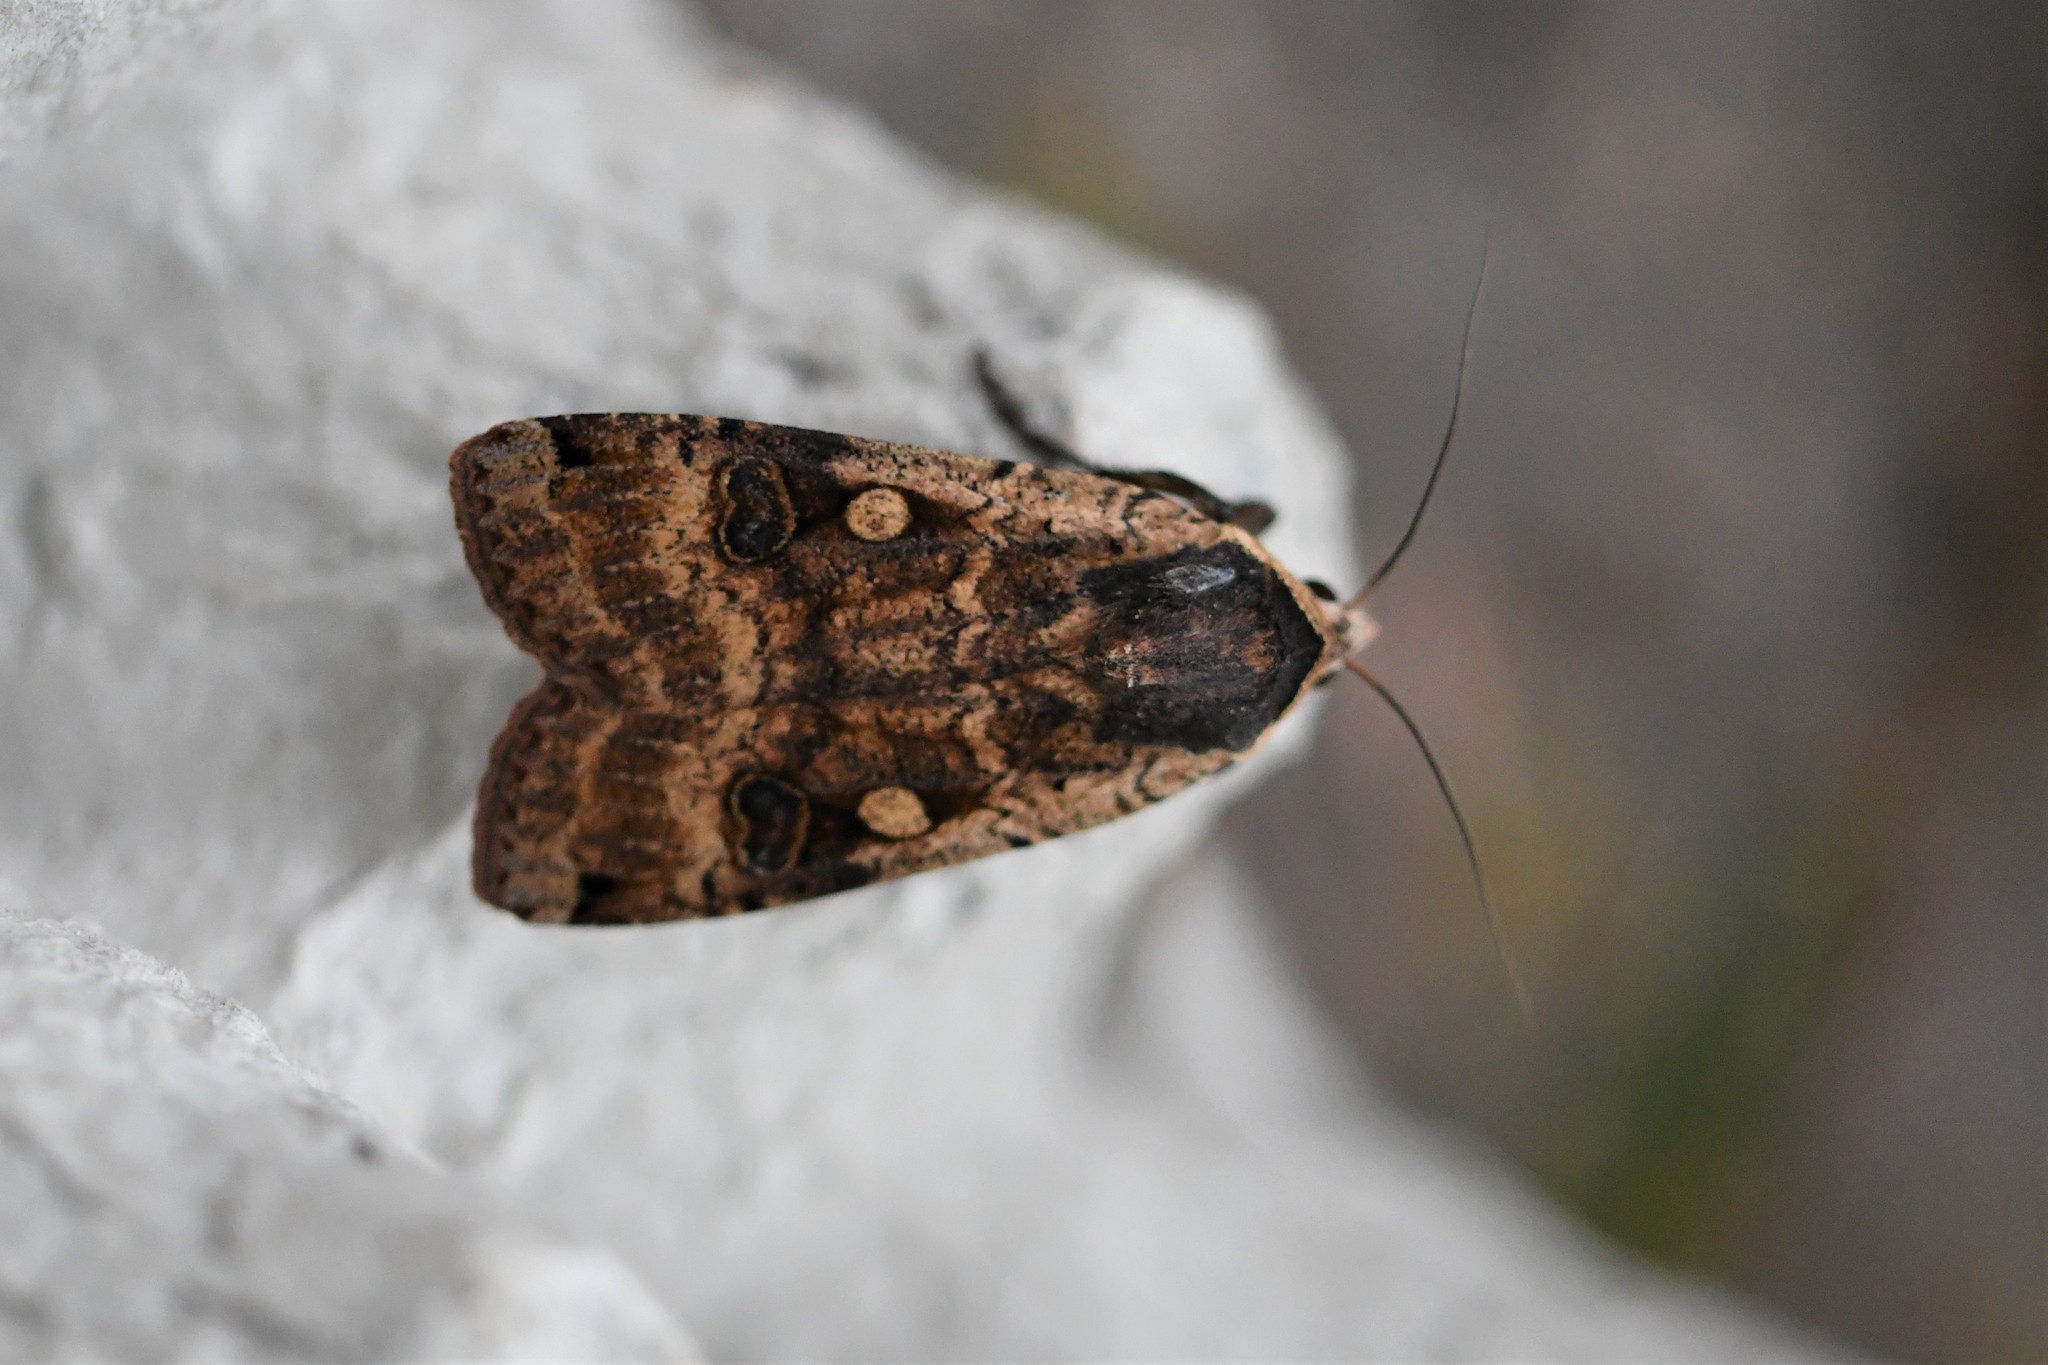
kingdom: Animalia
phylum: Arthropoda
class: Insecta
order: Lepidoptera
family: Noctuidae
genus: Noctua
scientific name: Noctua pronuba
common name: Large yellow underwing
